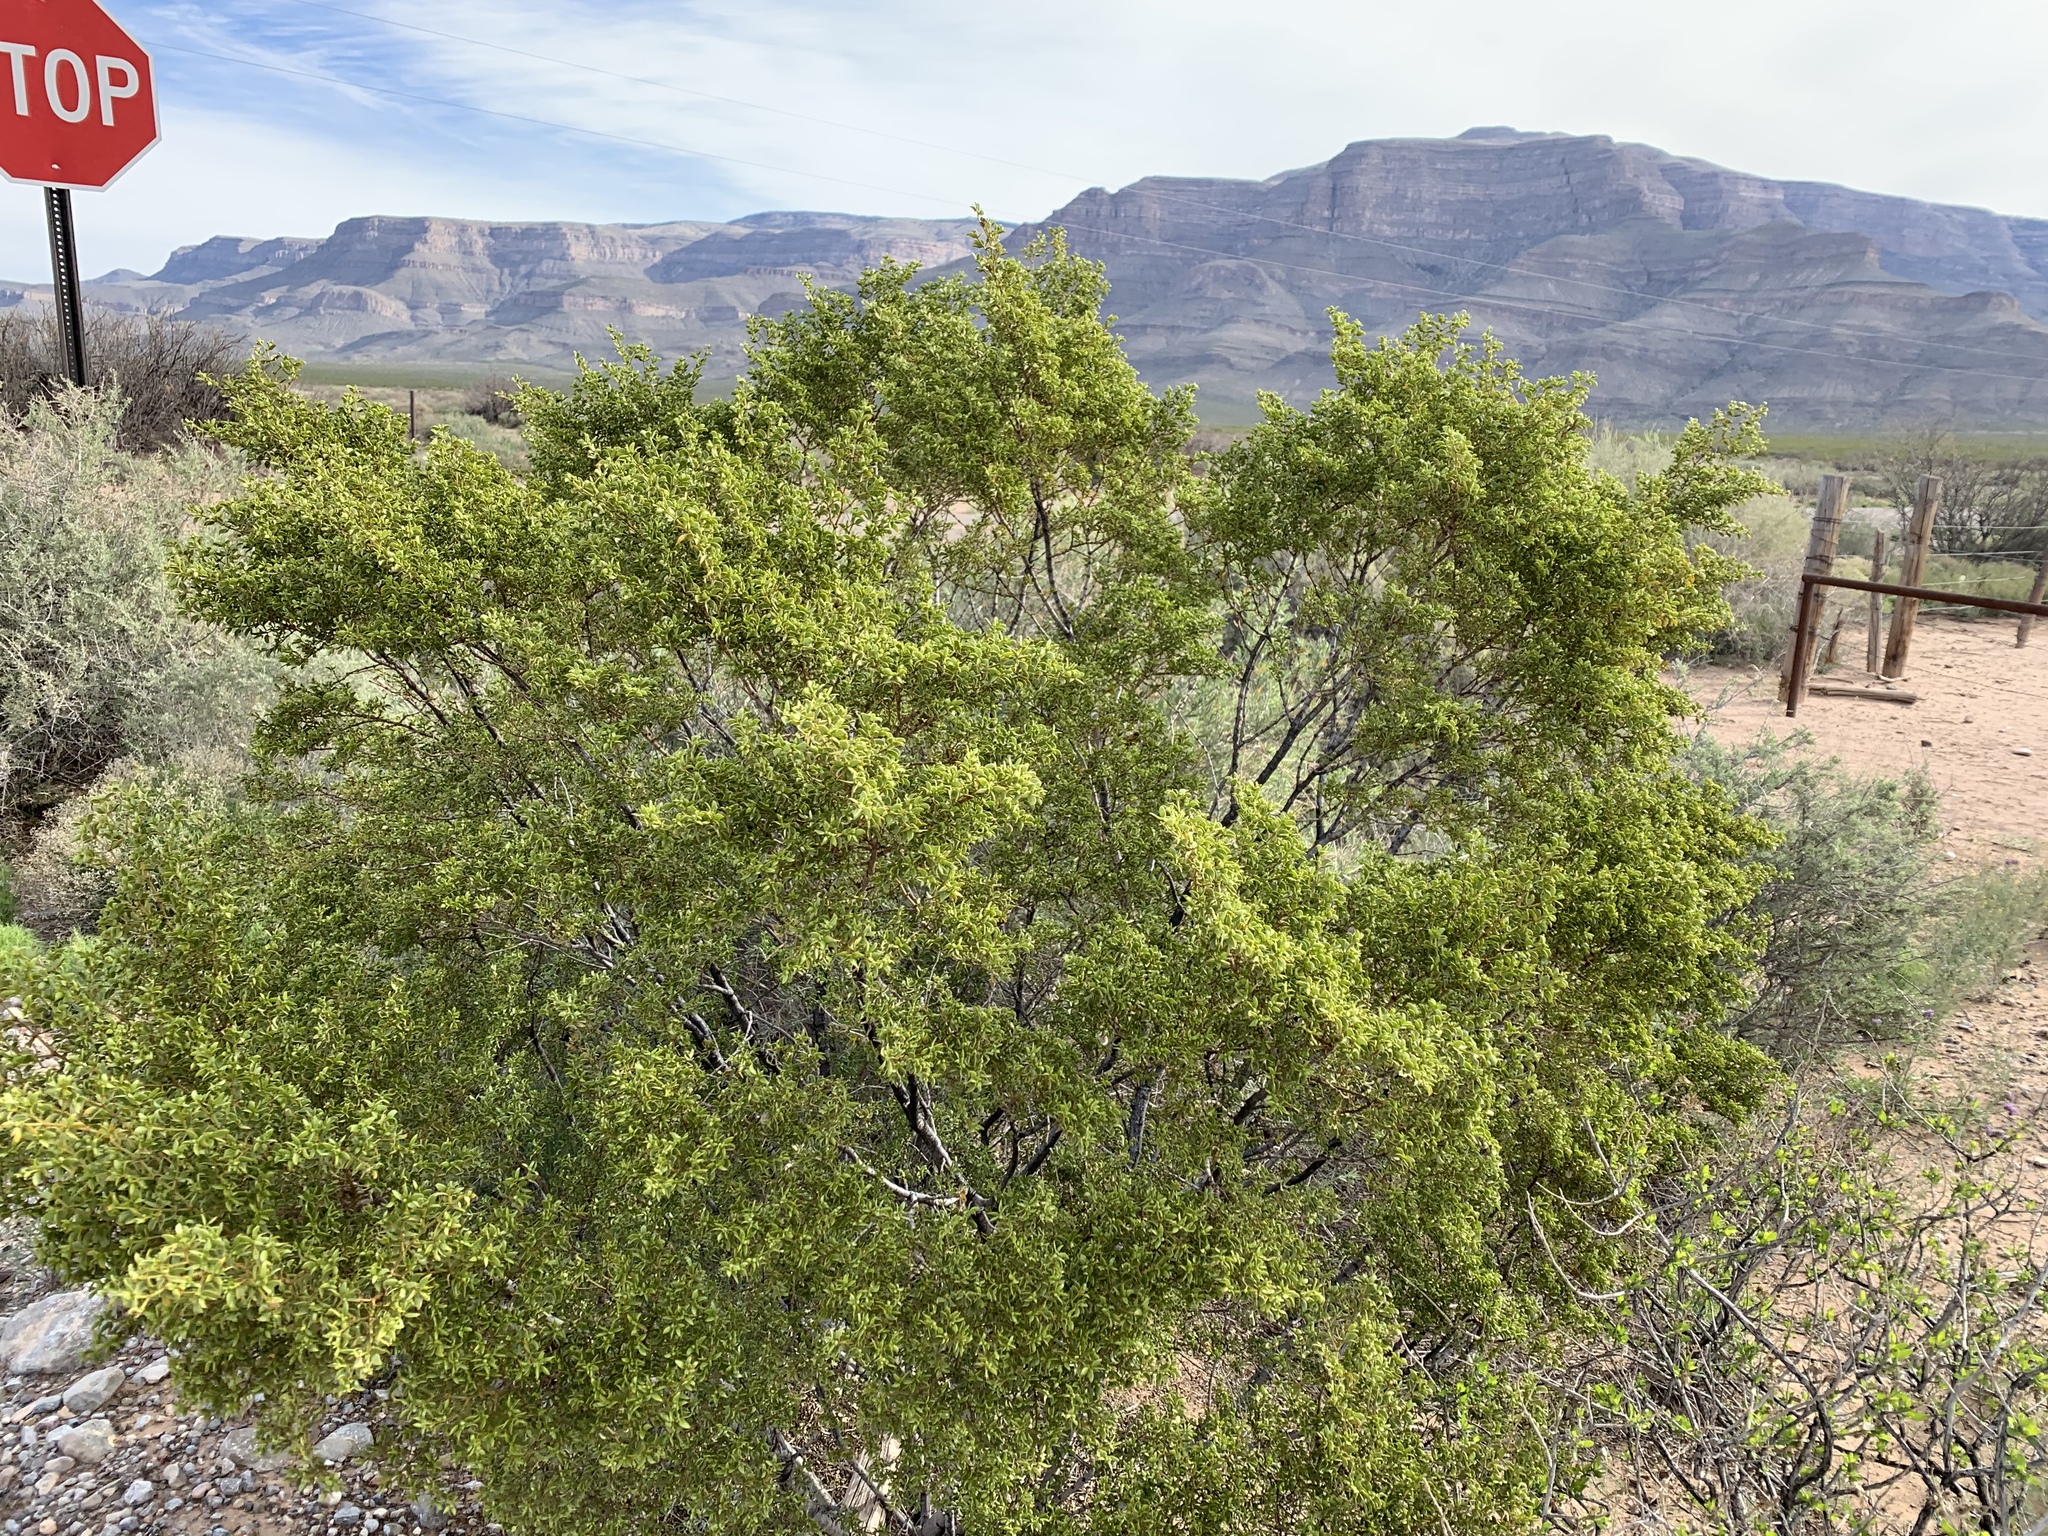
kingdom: Plantae
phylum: Tracheophyta
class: Magnoliopsida
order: Zygophyllales
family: Zygophyllaceae
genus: Larrea
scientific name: Larrea tridentata
